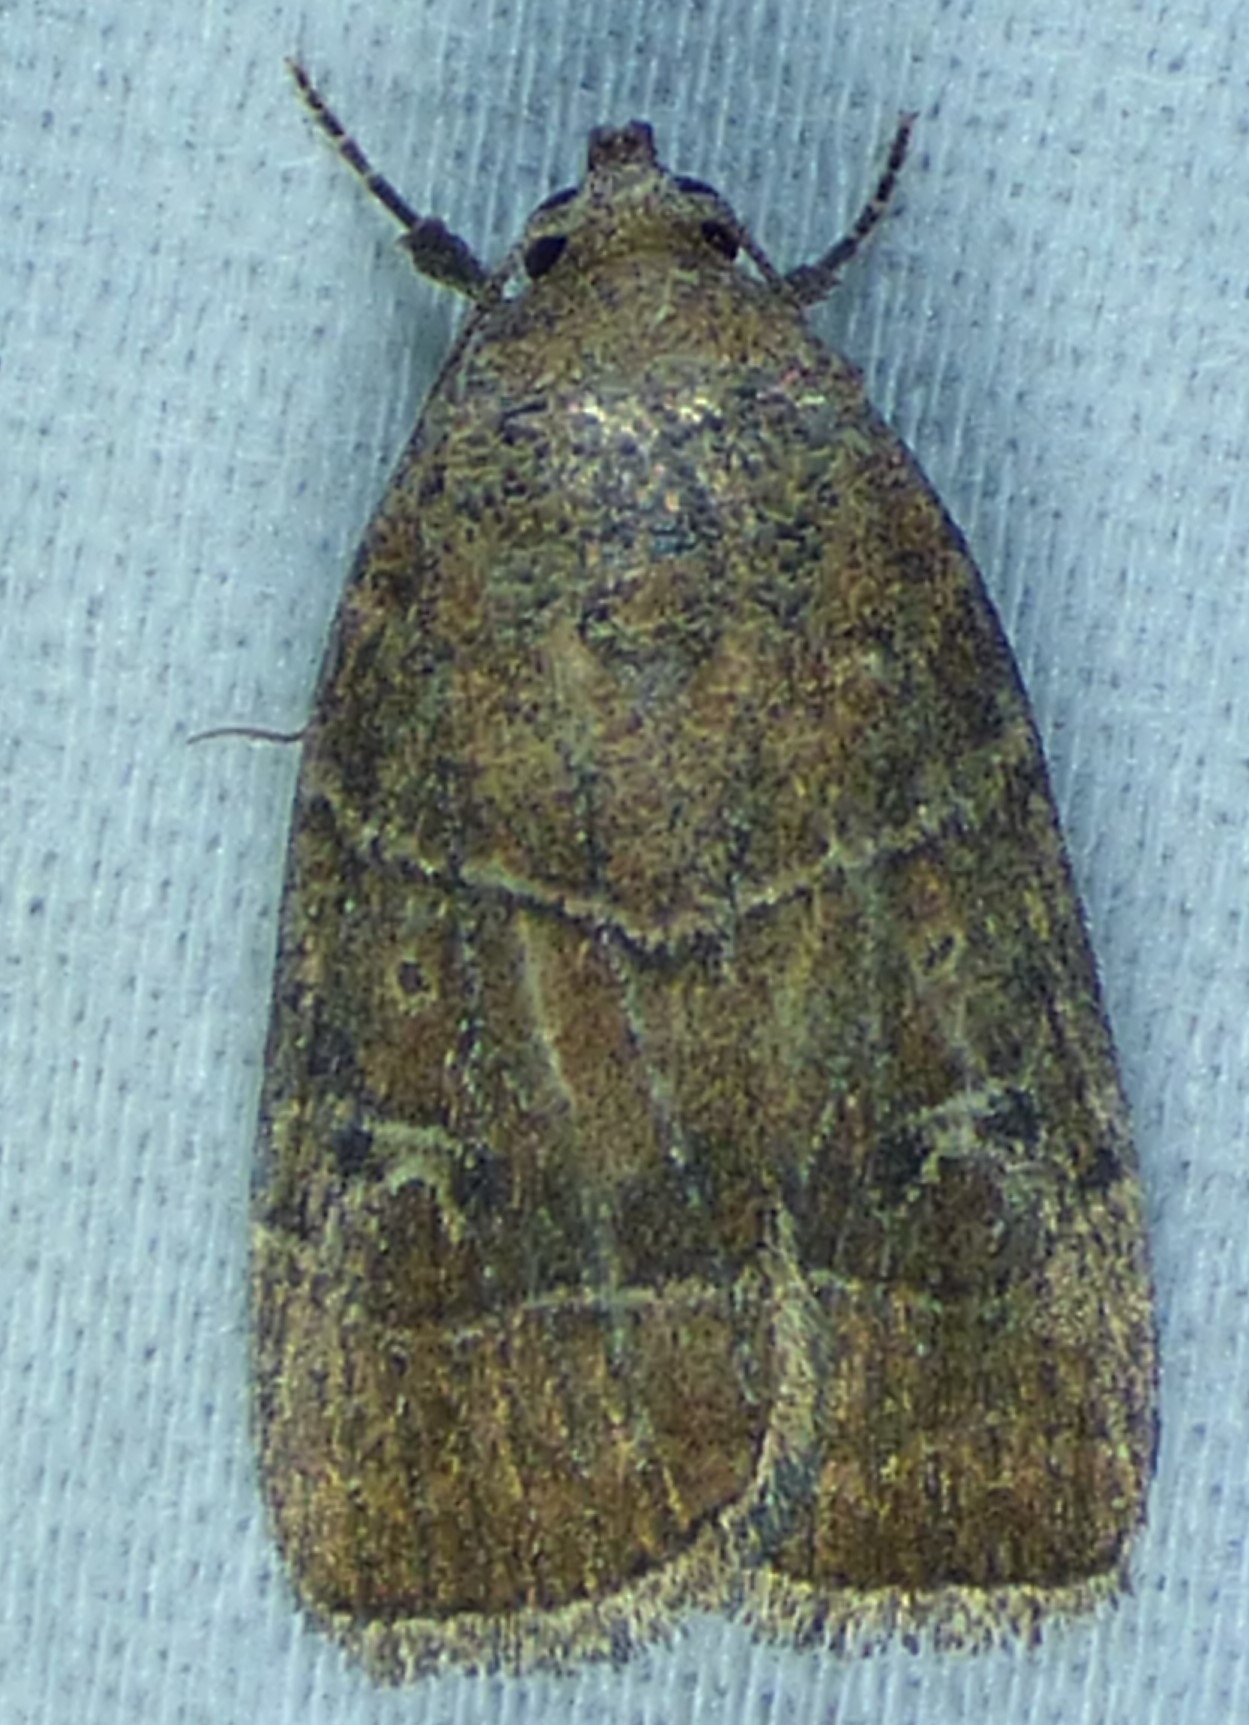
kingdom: Animalia
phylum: Arthropoda
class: Insecta
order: Lepidoptera
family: Noctuidae
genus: Elaphria
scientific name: Elaphria grata
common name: Grateful midget moth
